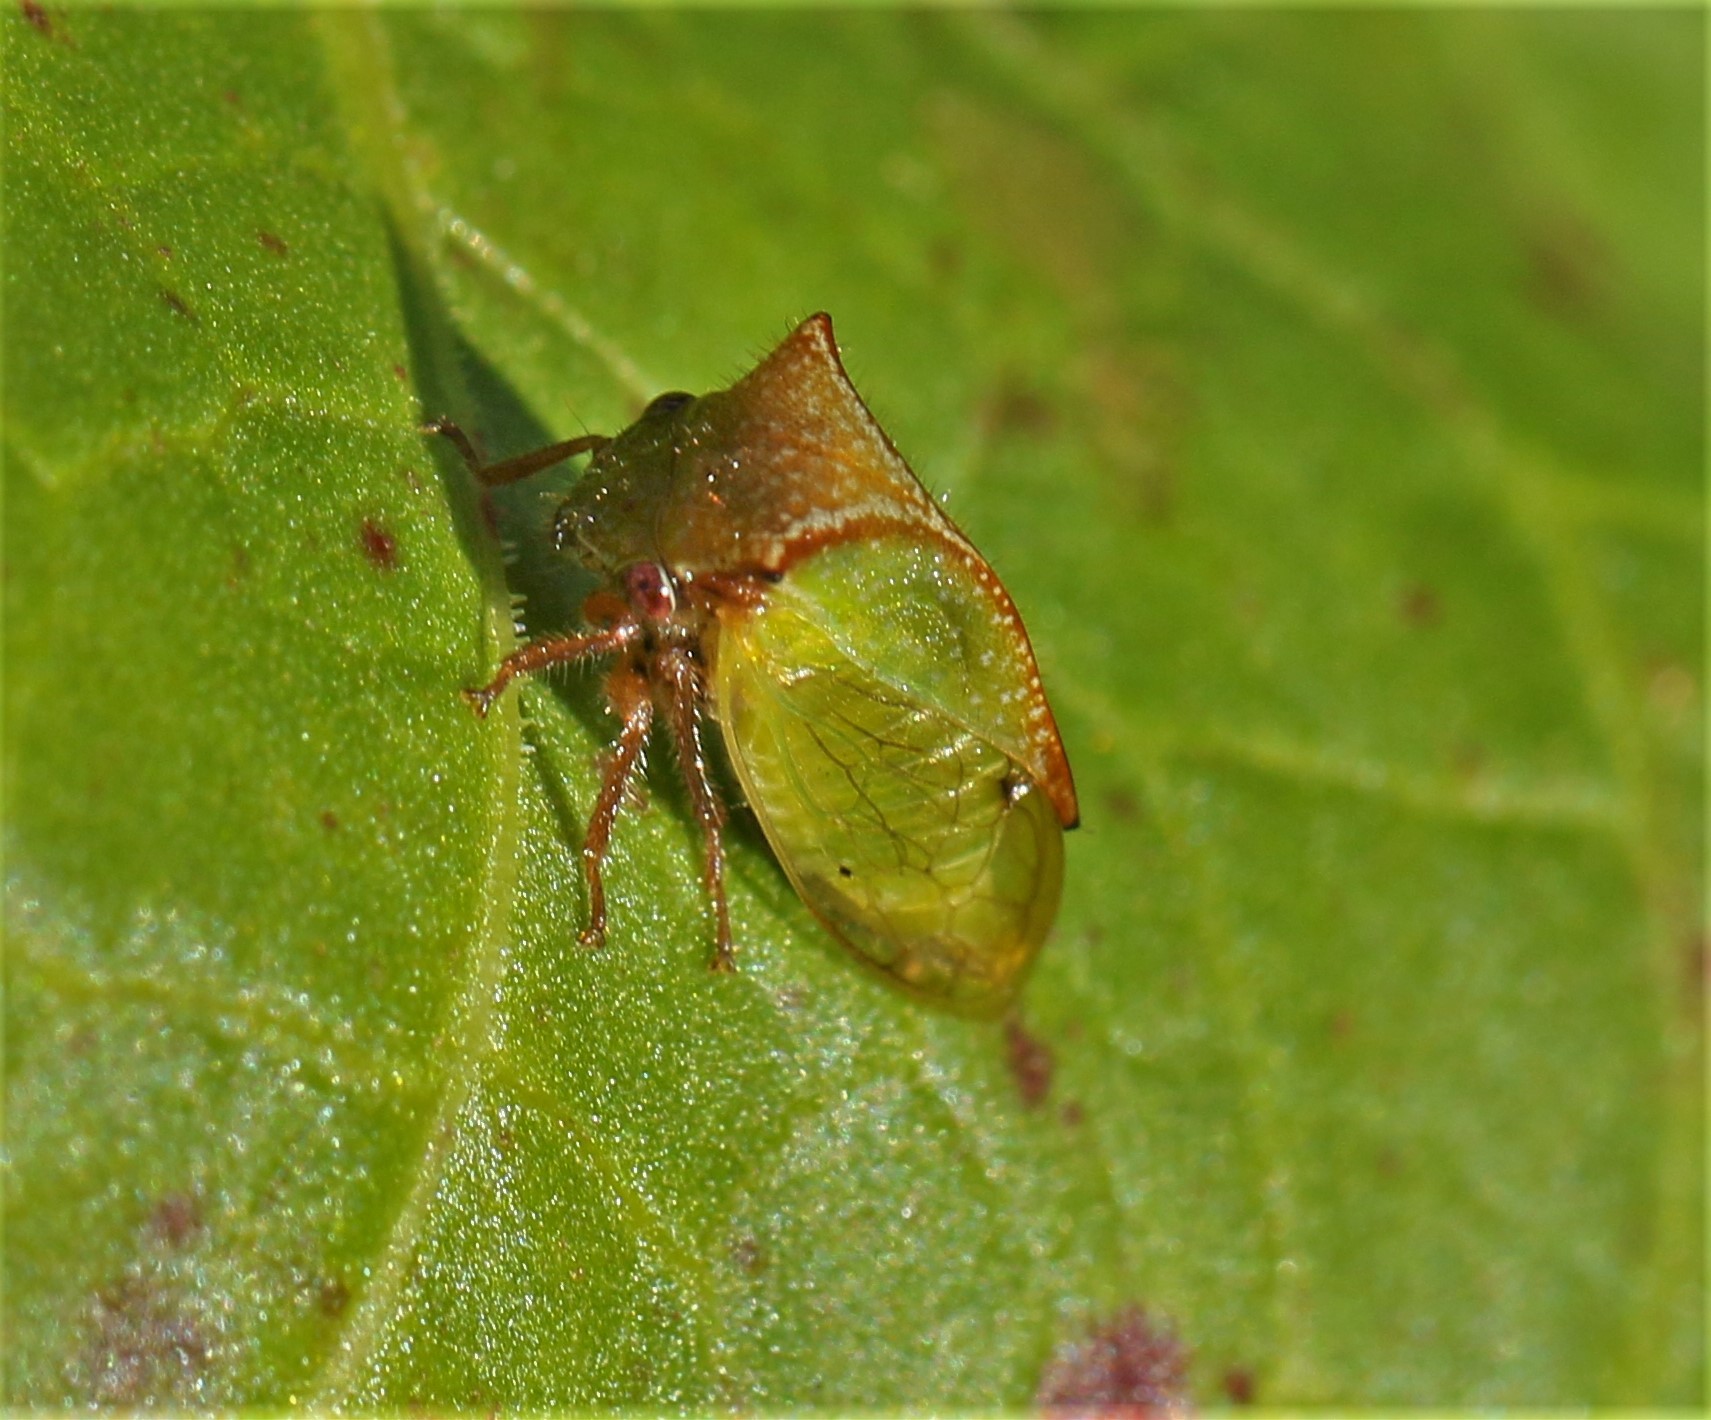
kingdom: Animalia
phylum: Arthropoda
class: Insecta
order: Hemiptera
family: Membracidae
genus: Stictocephala
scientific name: Stictocephala basalis
